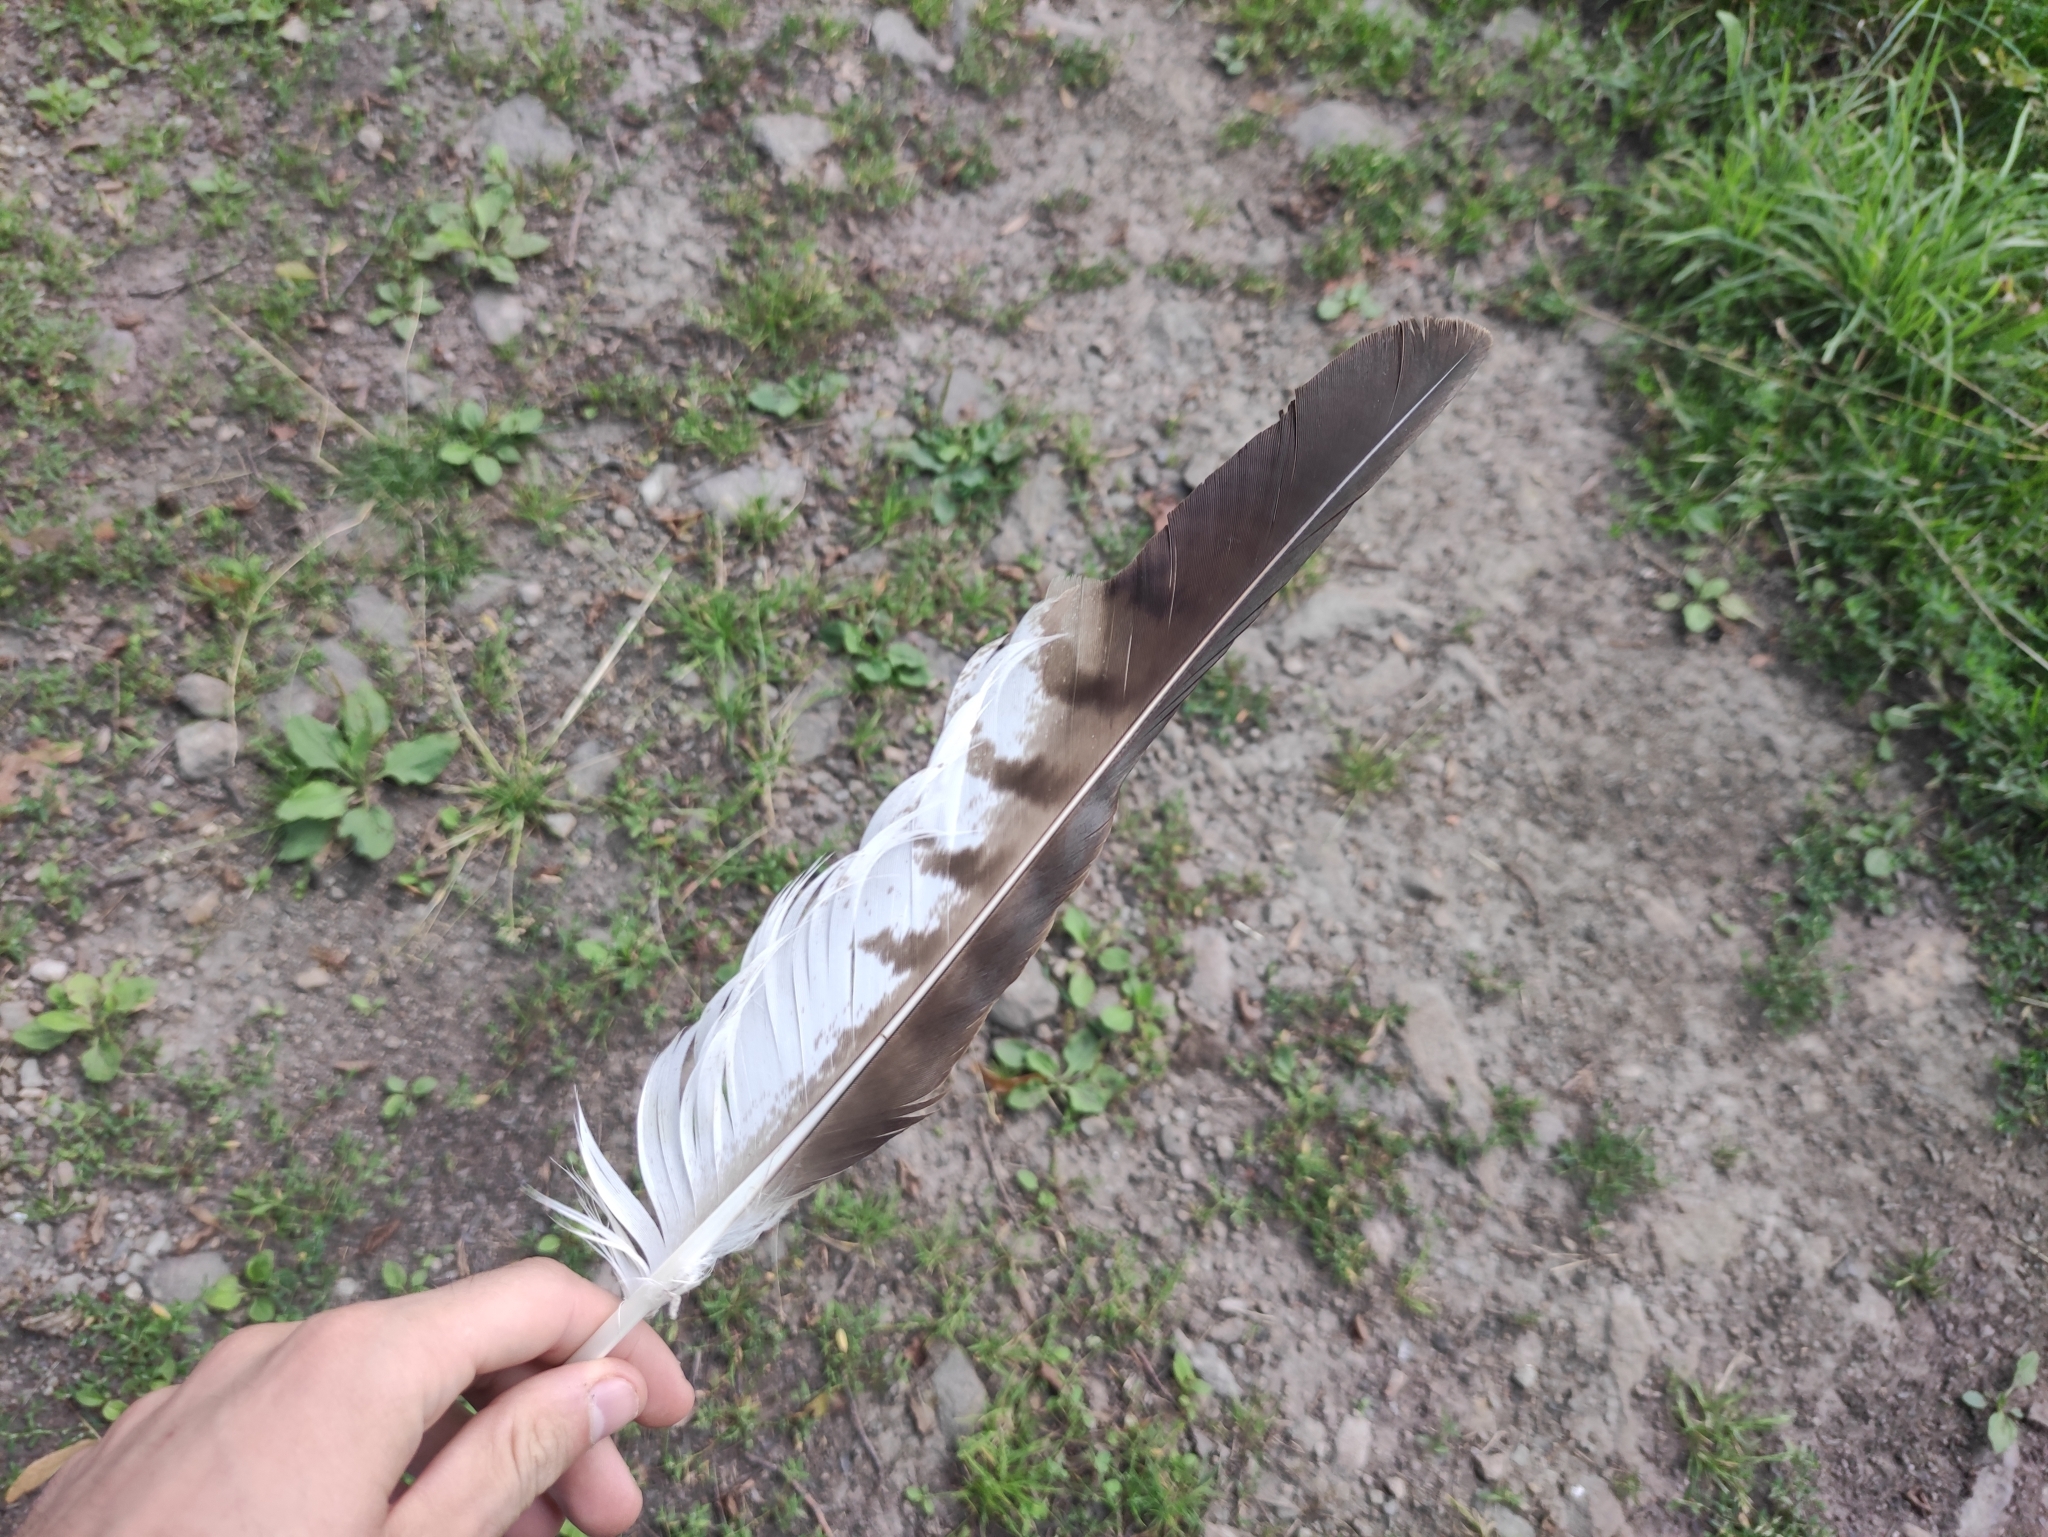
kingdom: Animalia
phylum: Chordata
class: Aves
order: Accipitriformes
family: Accipitridae
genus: Buteo
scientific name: Buteo buteo
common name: Common buzzard
